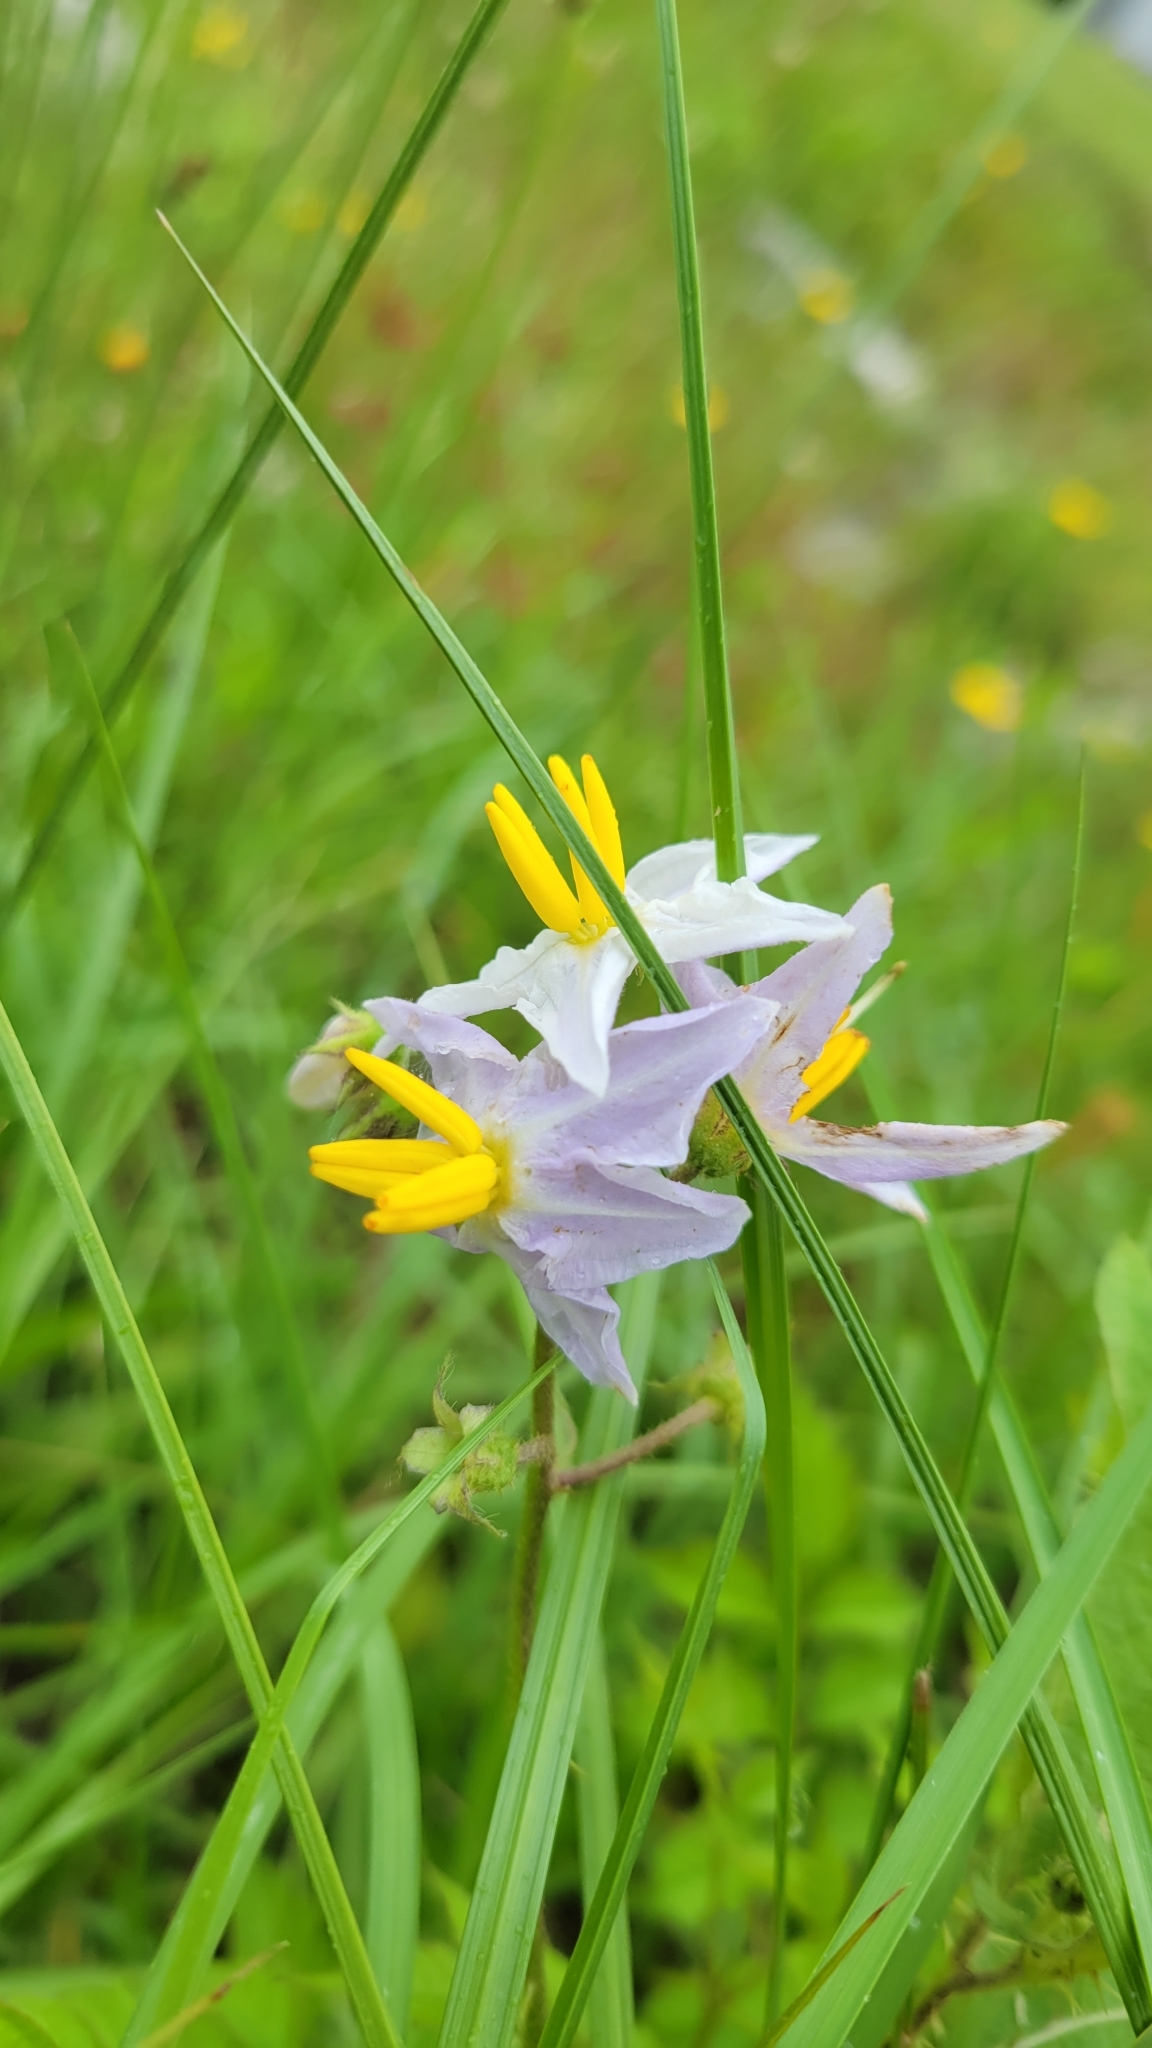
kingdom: Plantae
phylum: Tracheophyta
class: Magnoliopsida
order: Solanales
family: Solanaceae
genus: Solanum
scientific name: Solanum carolinense
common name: Horse-nettle
